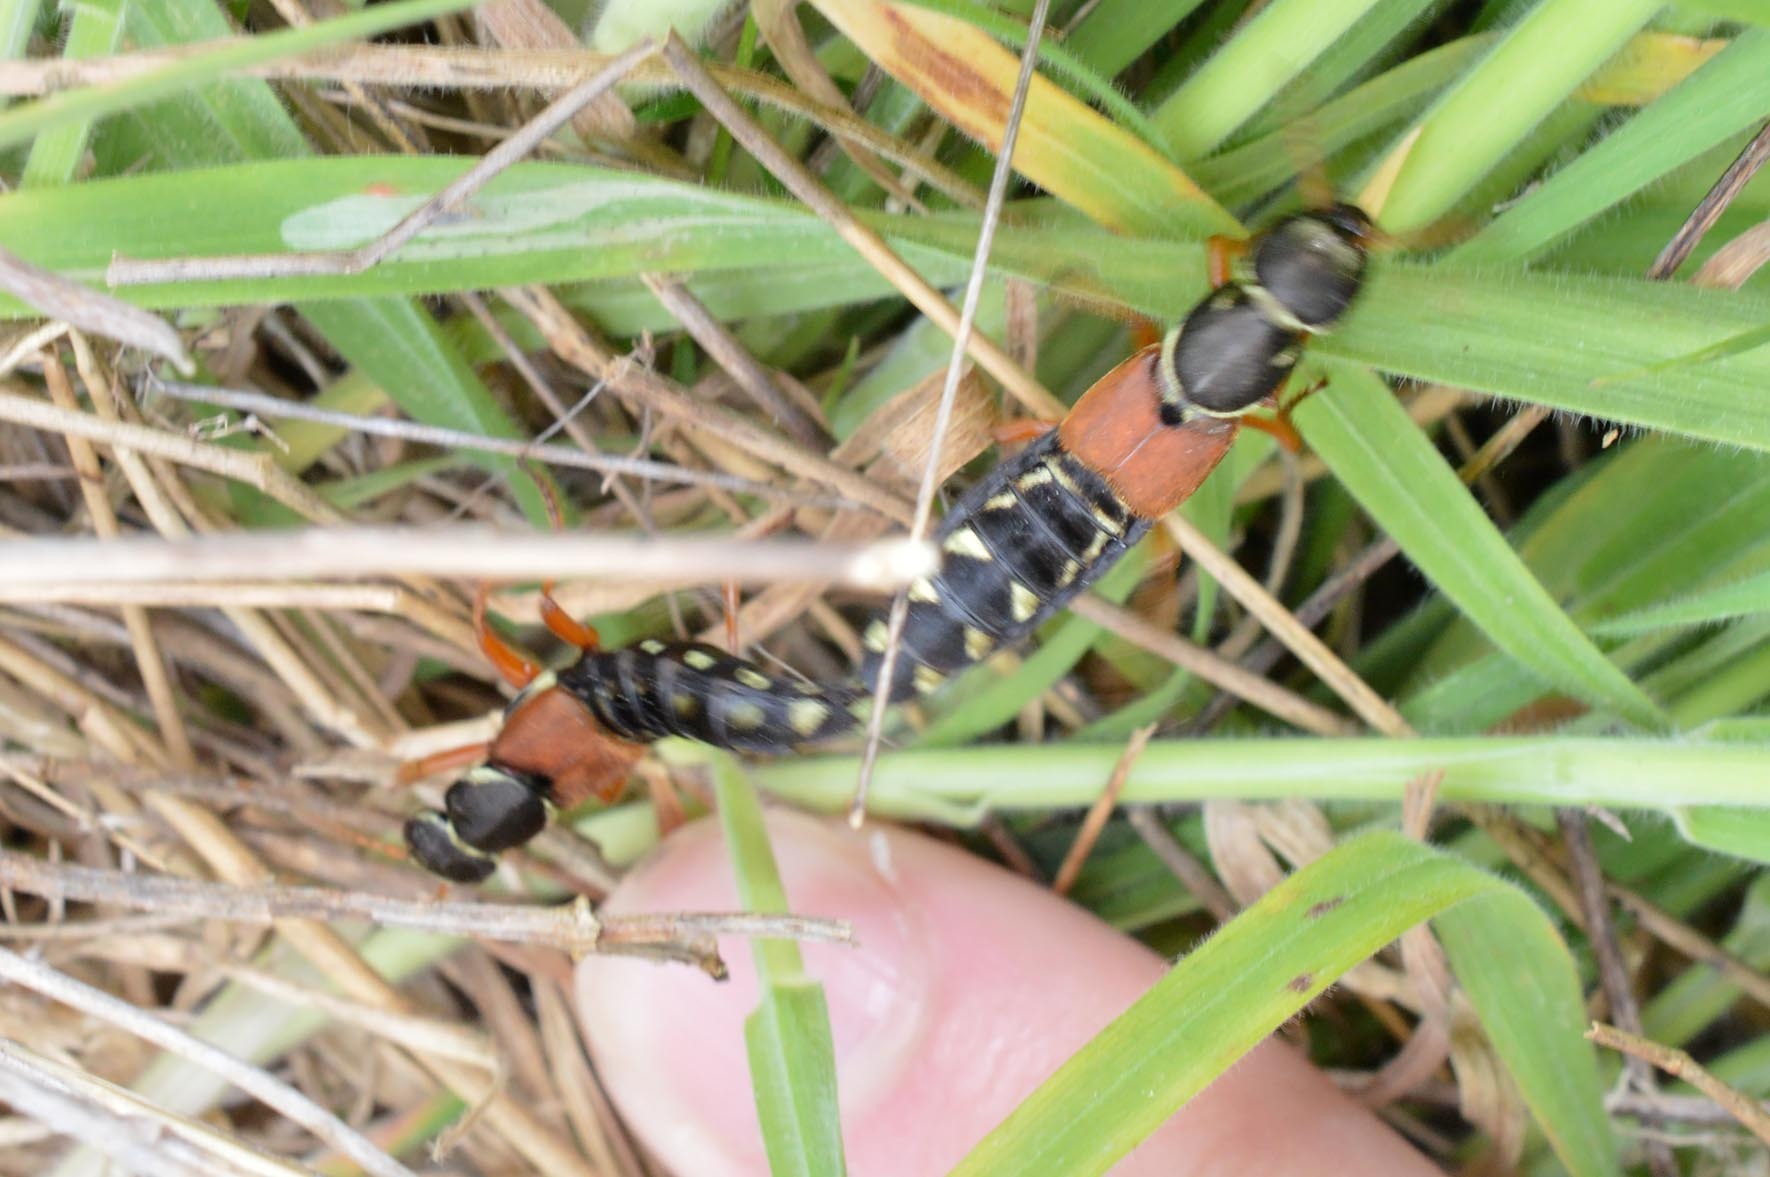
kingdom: Animalia
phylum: Arthropoda
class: Insecta
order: Coleoptera
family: Staphylinidae
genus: Staphylinus
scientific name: Staphylinus caesareus
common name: Staph beetle
